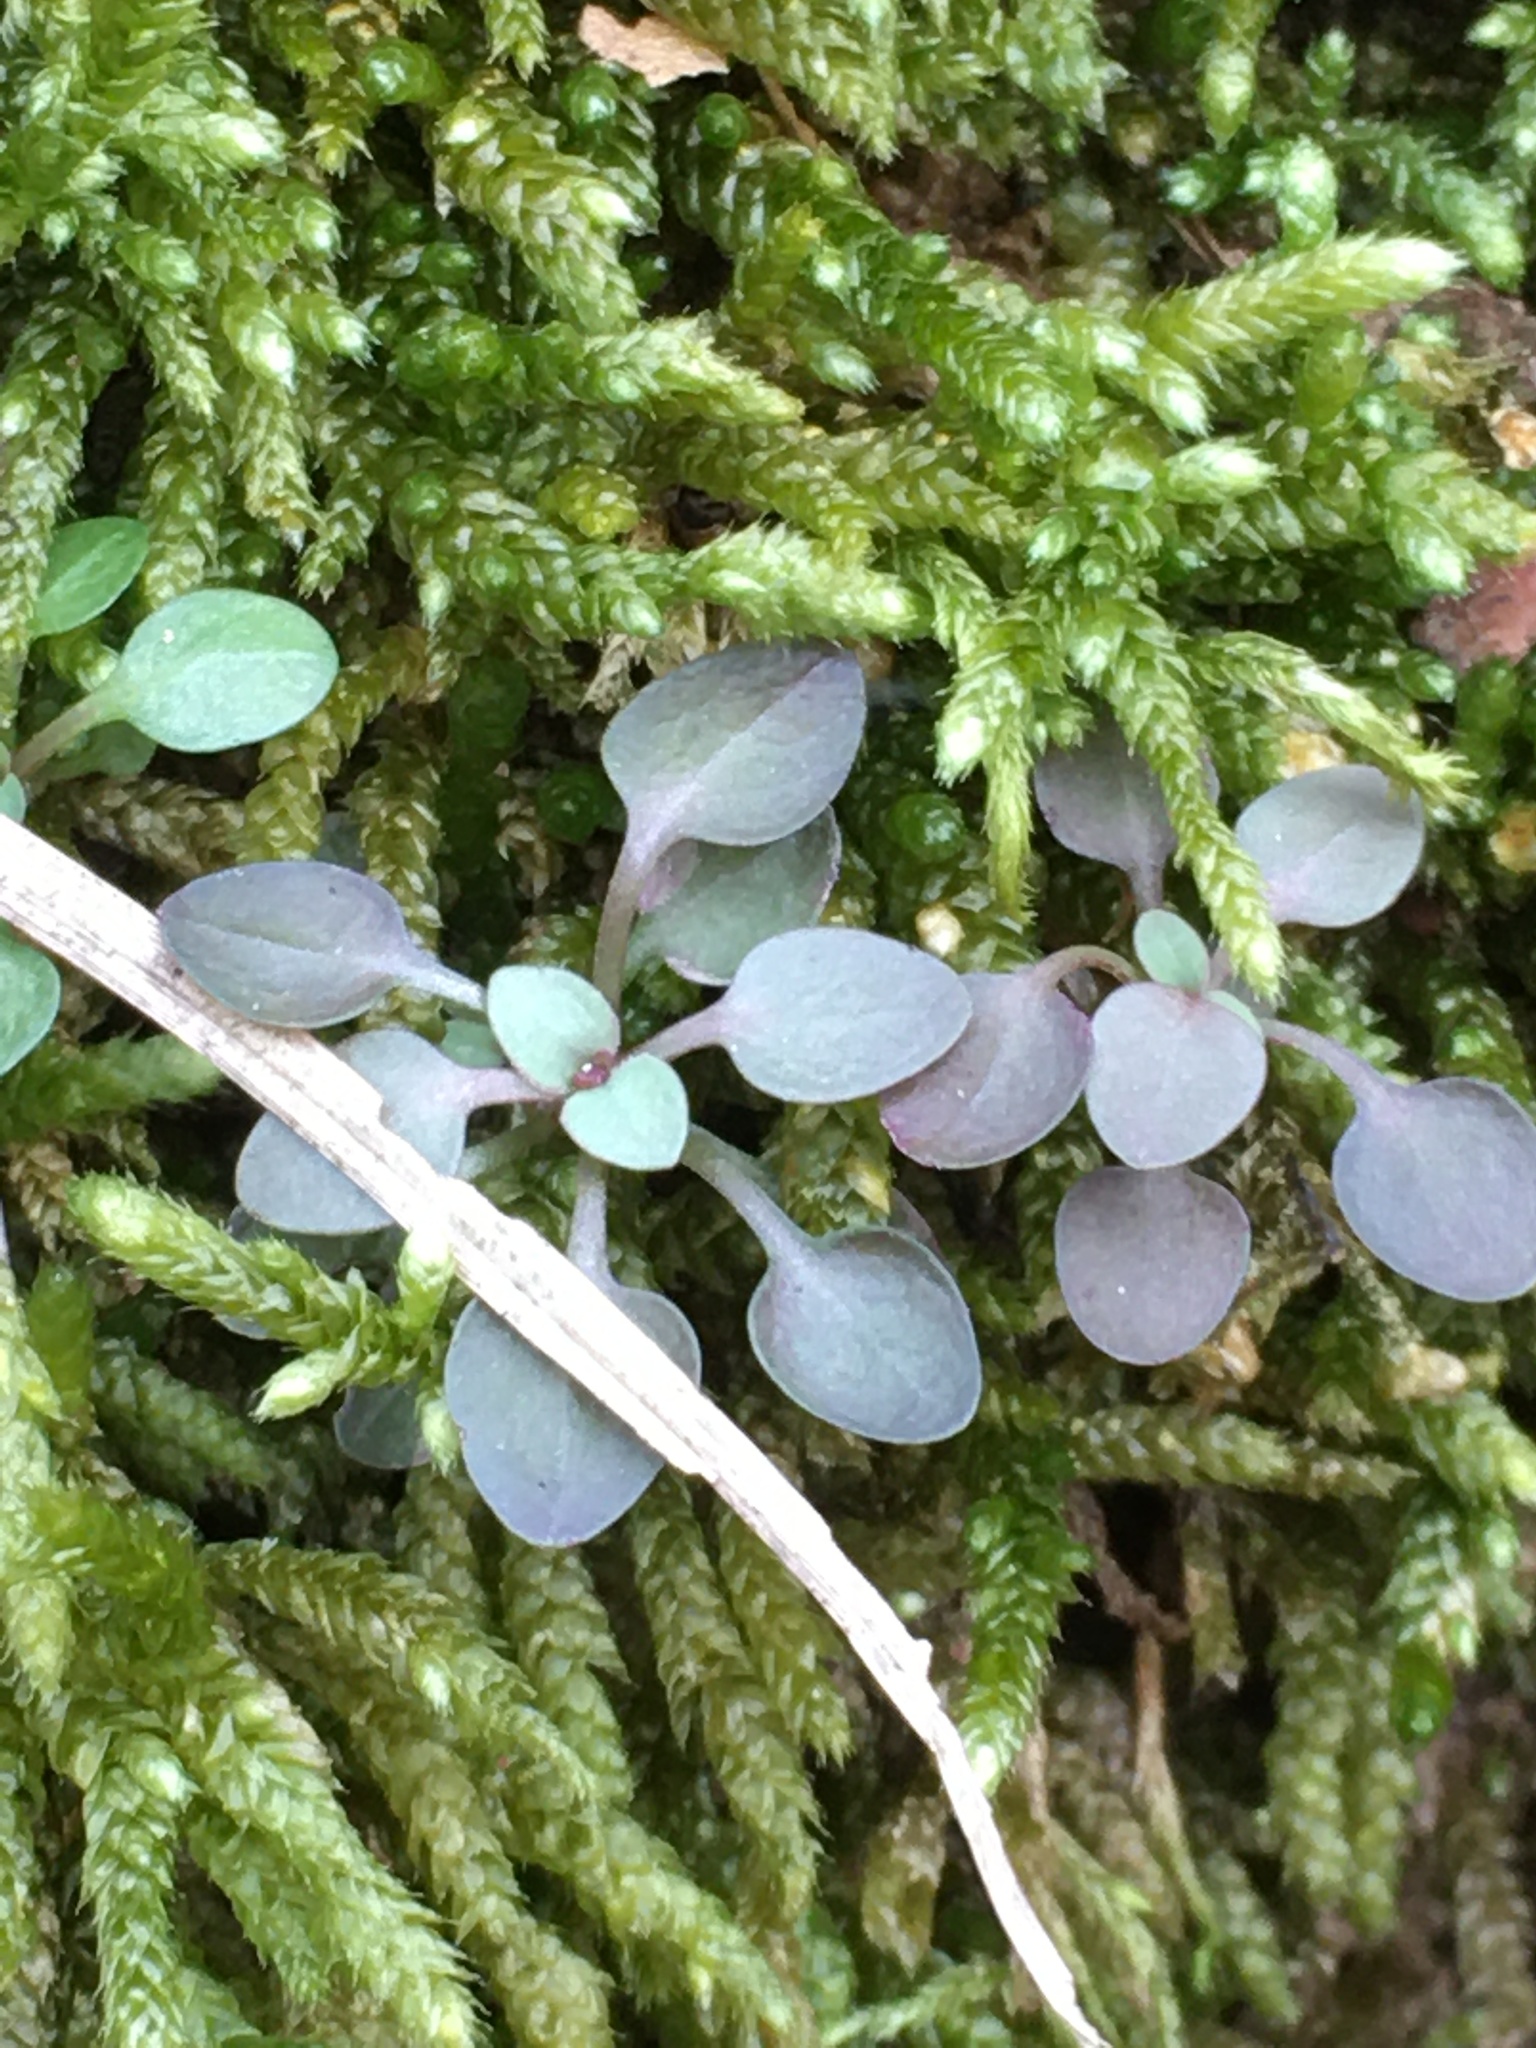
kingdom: Plantae
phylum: Tracheophyta
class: Magnoliopsida
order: Gentianales
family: Rubiaceae
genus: Houstonia
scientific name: Houstonia caerulea
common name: Bluets
